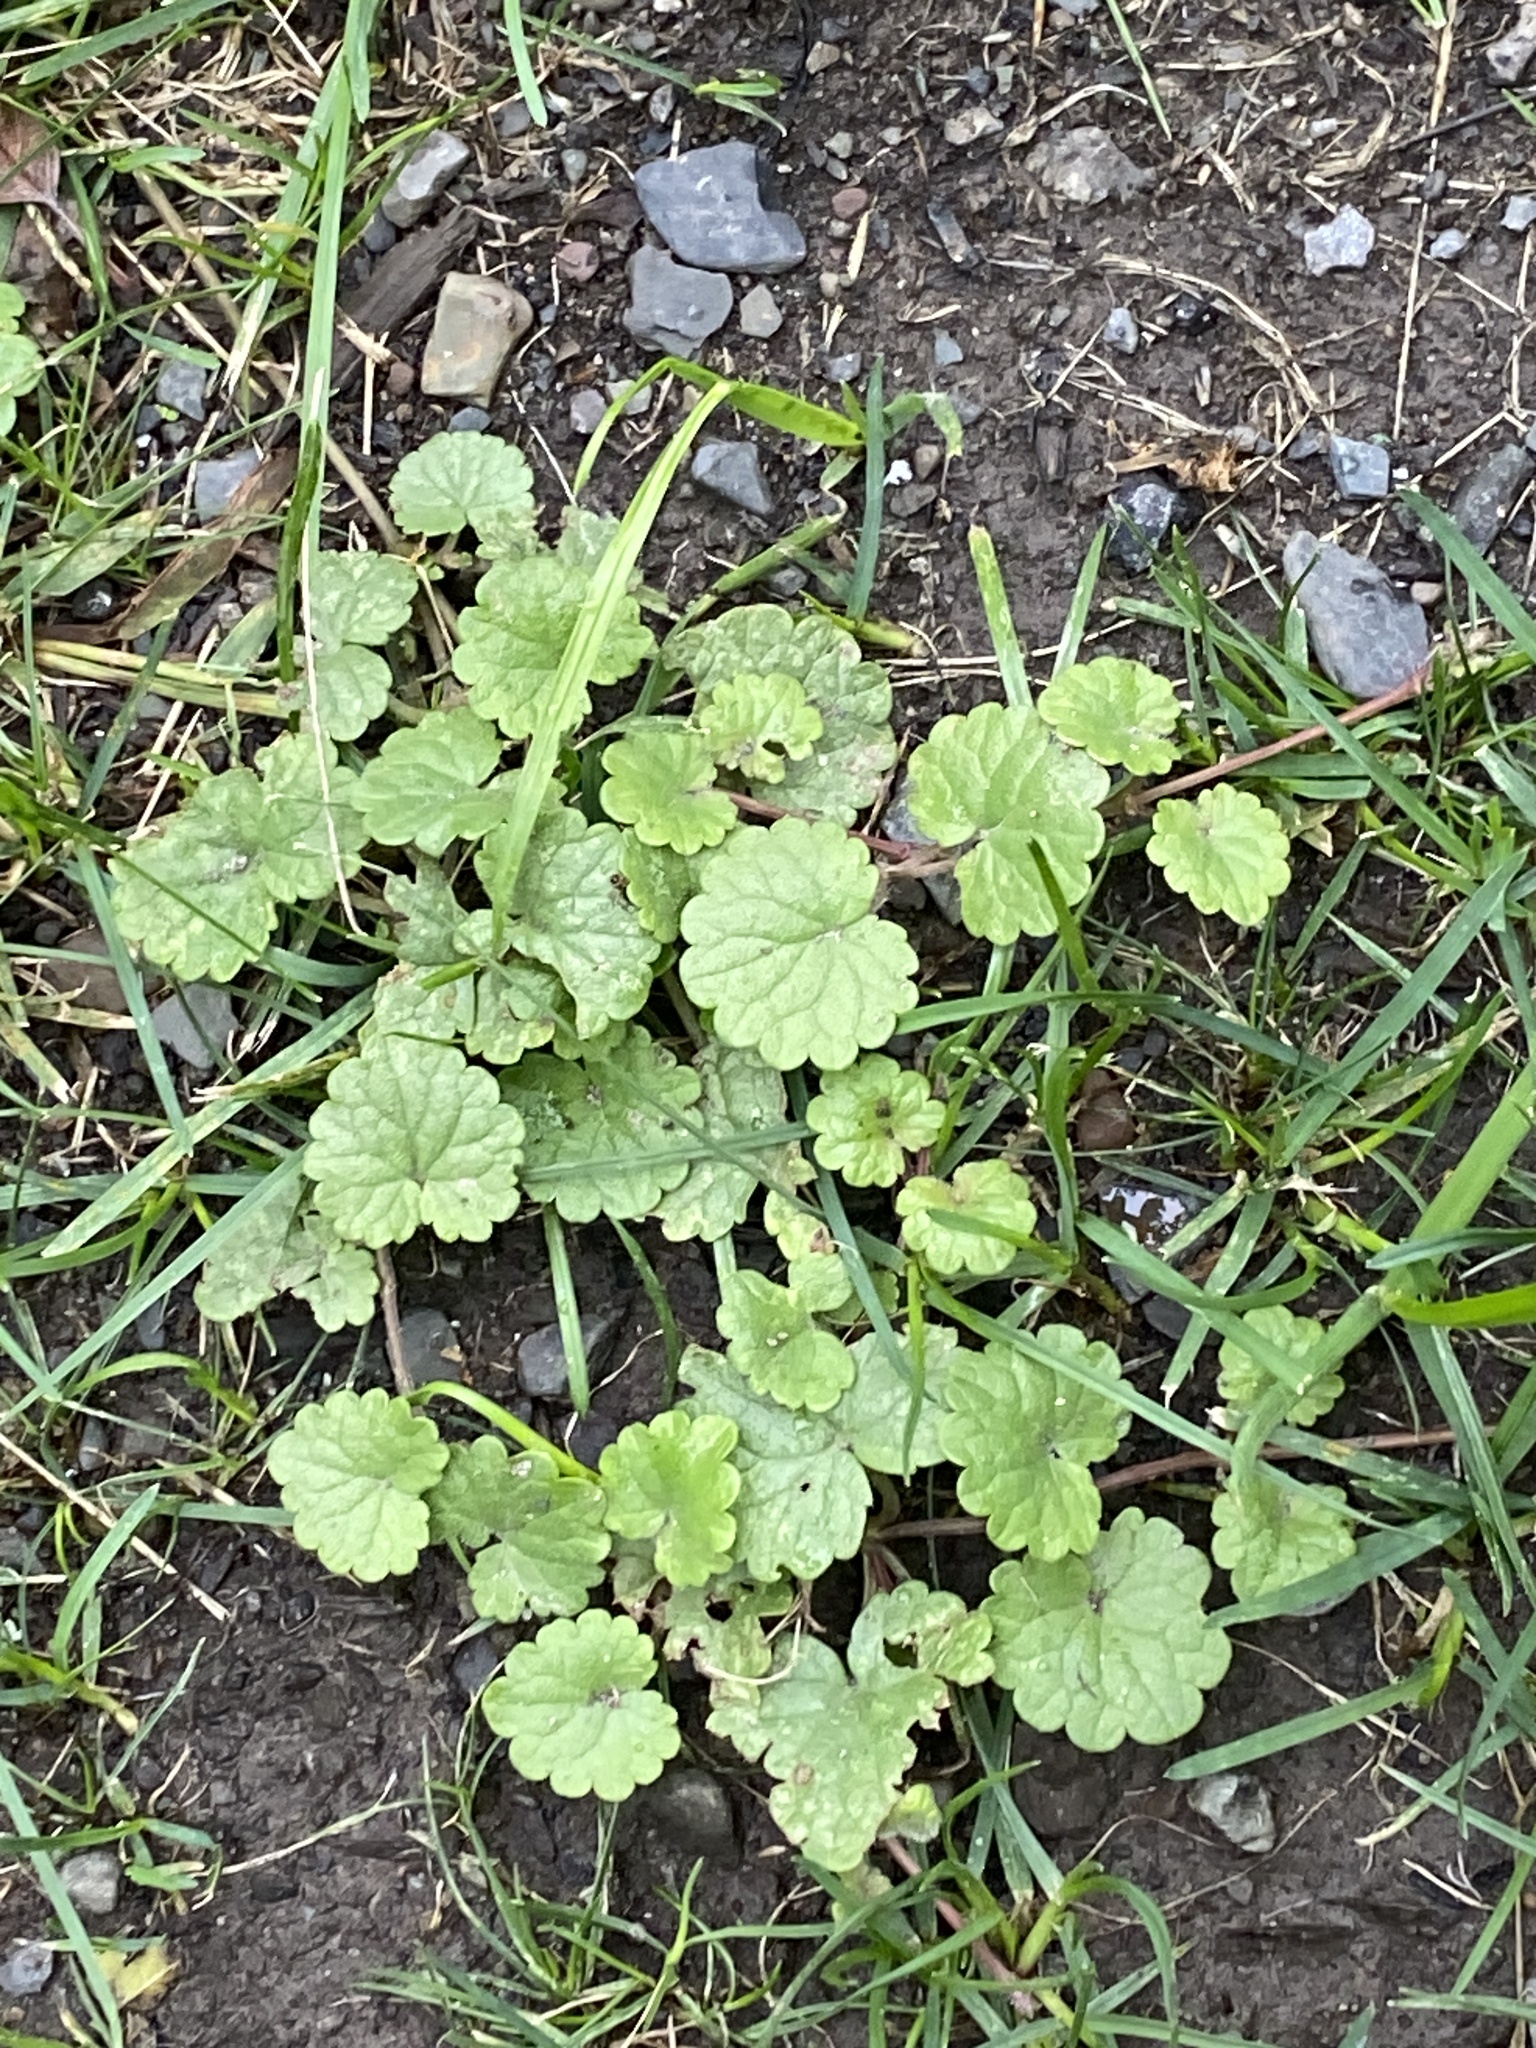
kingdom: Plantae
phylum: Tracheophyta
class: Magnoliopsida
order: Lamiales
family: Lamiaceae
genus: Glechoma
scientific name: Glechoma hederacea
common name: Ground ivy
